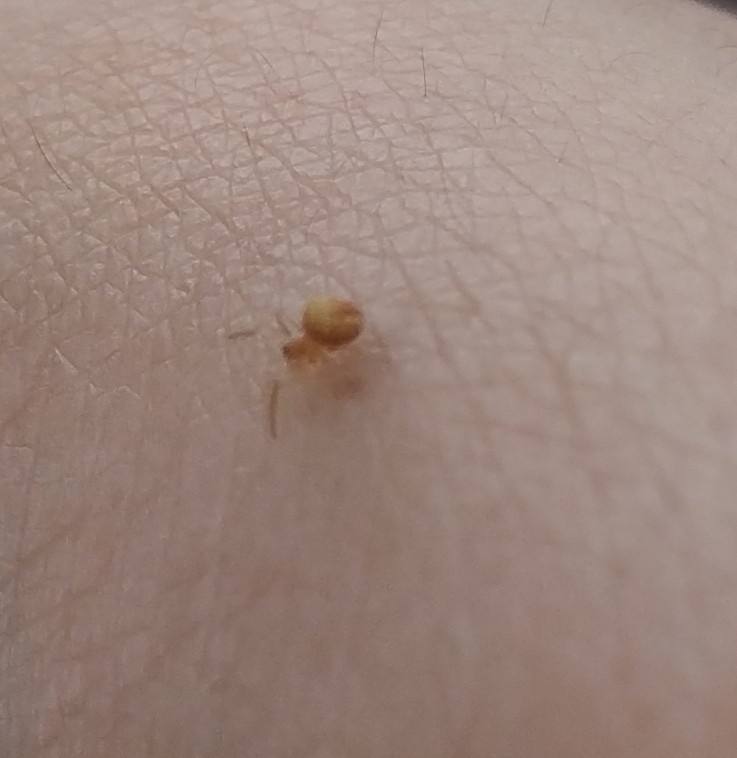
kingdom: Animalia
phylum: Arthropoda
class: Arachnida
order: Araneae
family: Theridiidae
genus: Paidiscura
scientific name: Paidiscura pallens
